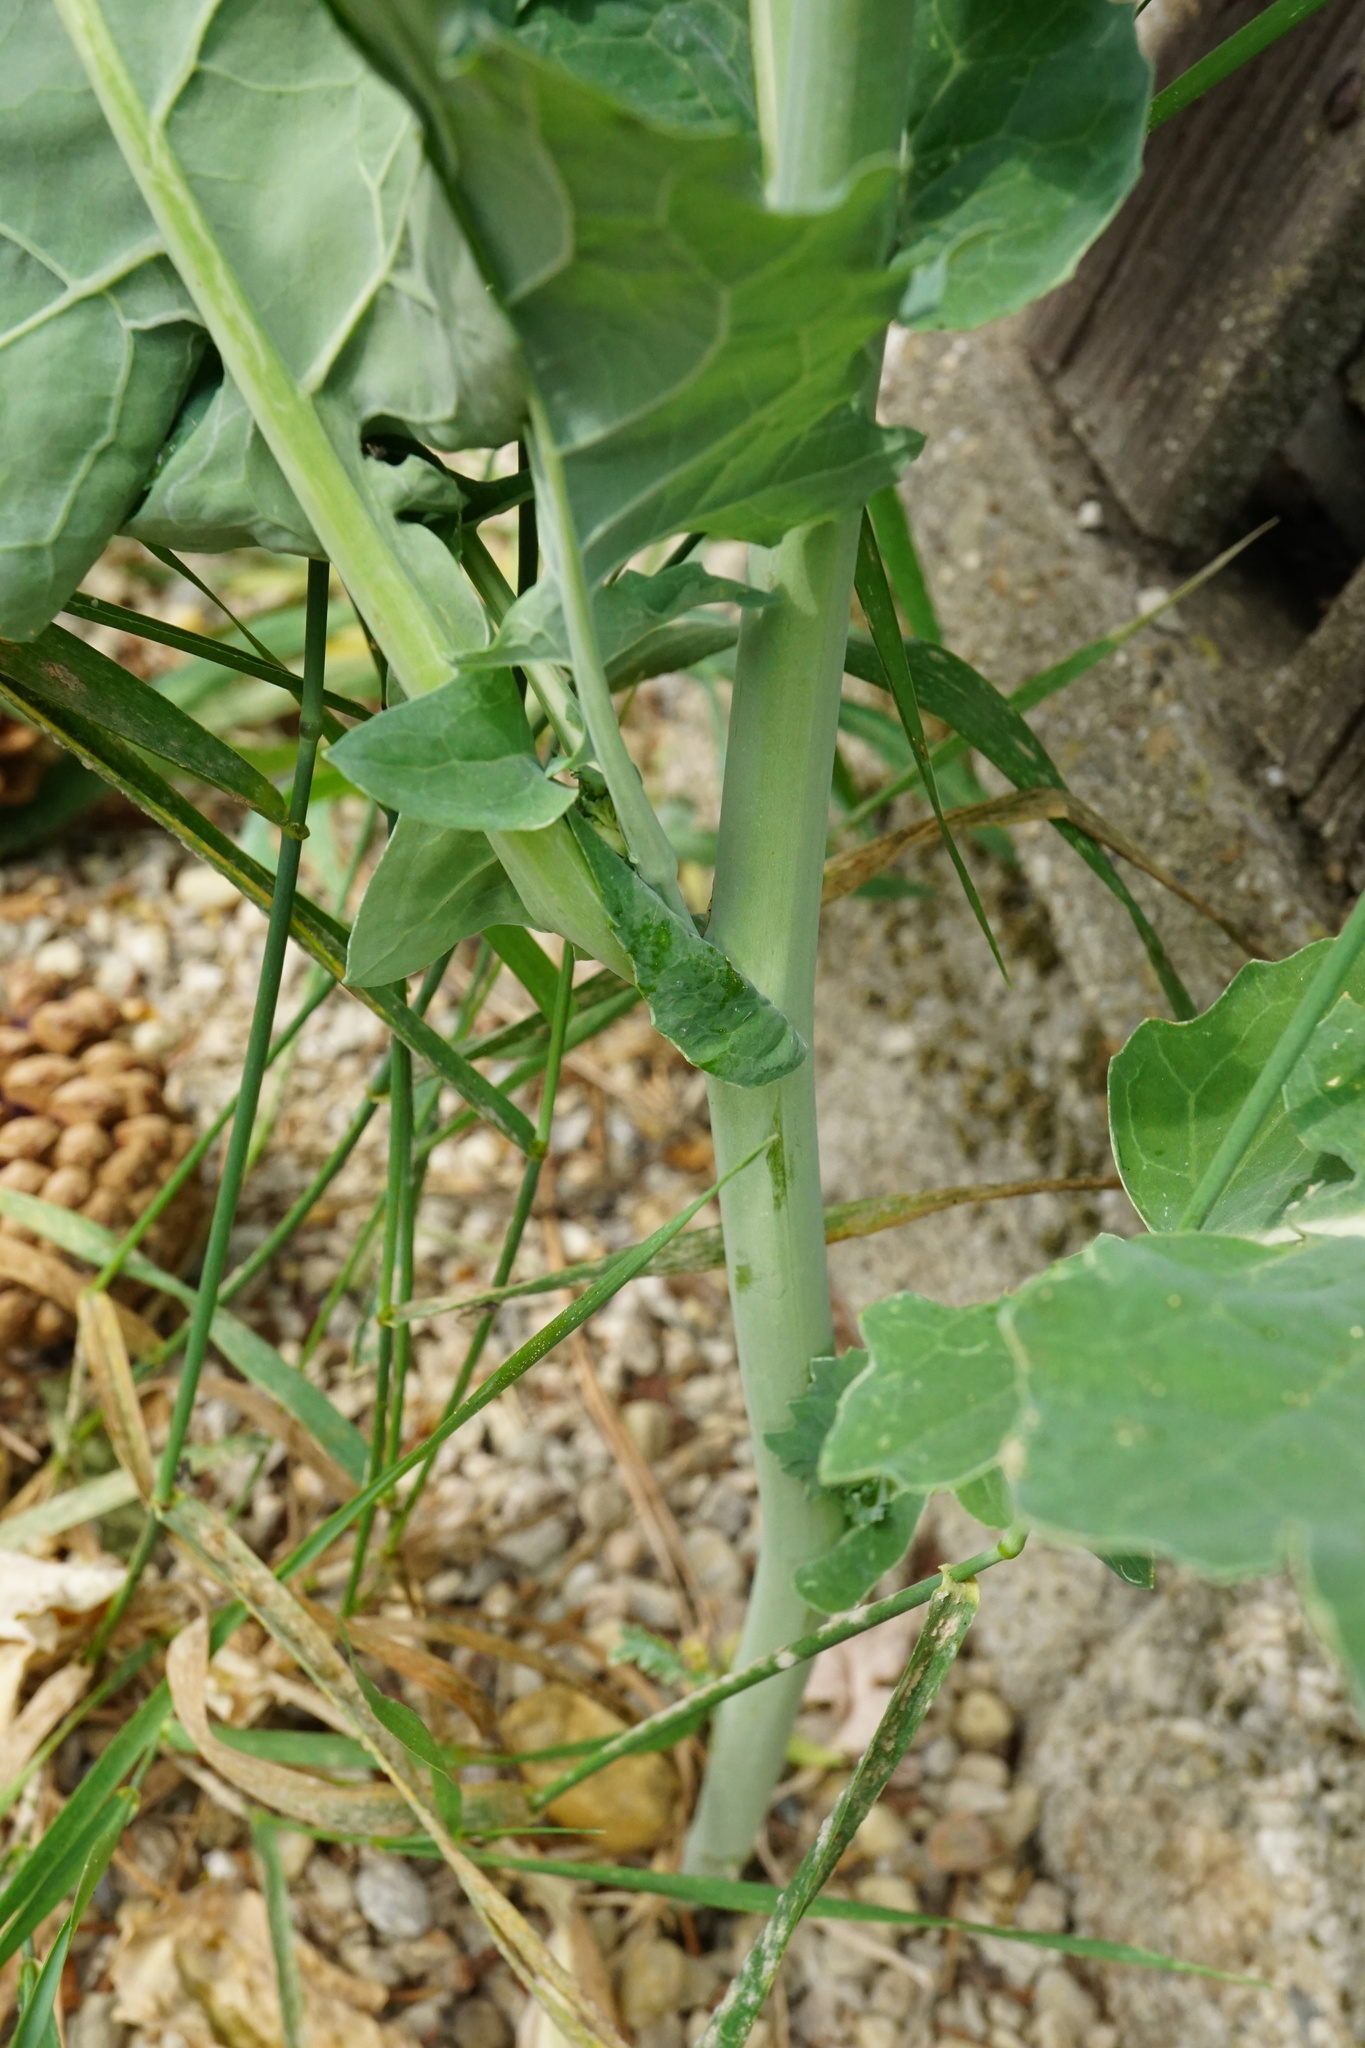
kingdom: Plantae
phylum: Tracheophyta
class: Magnoliopsida
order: Brassicales
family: Brassicaceae
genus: Brassica
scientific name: Brassica napus
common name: Rape
